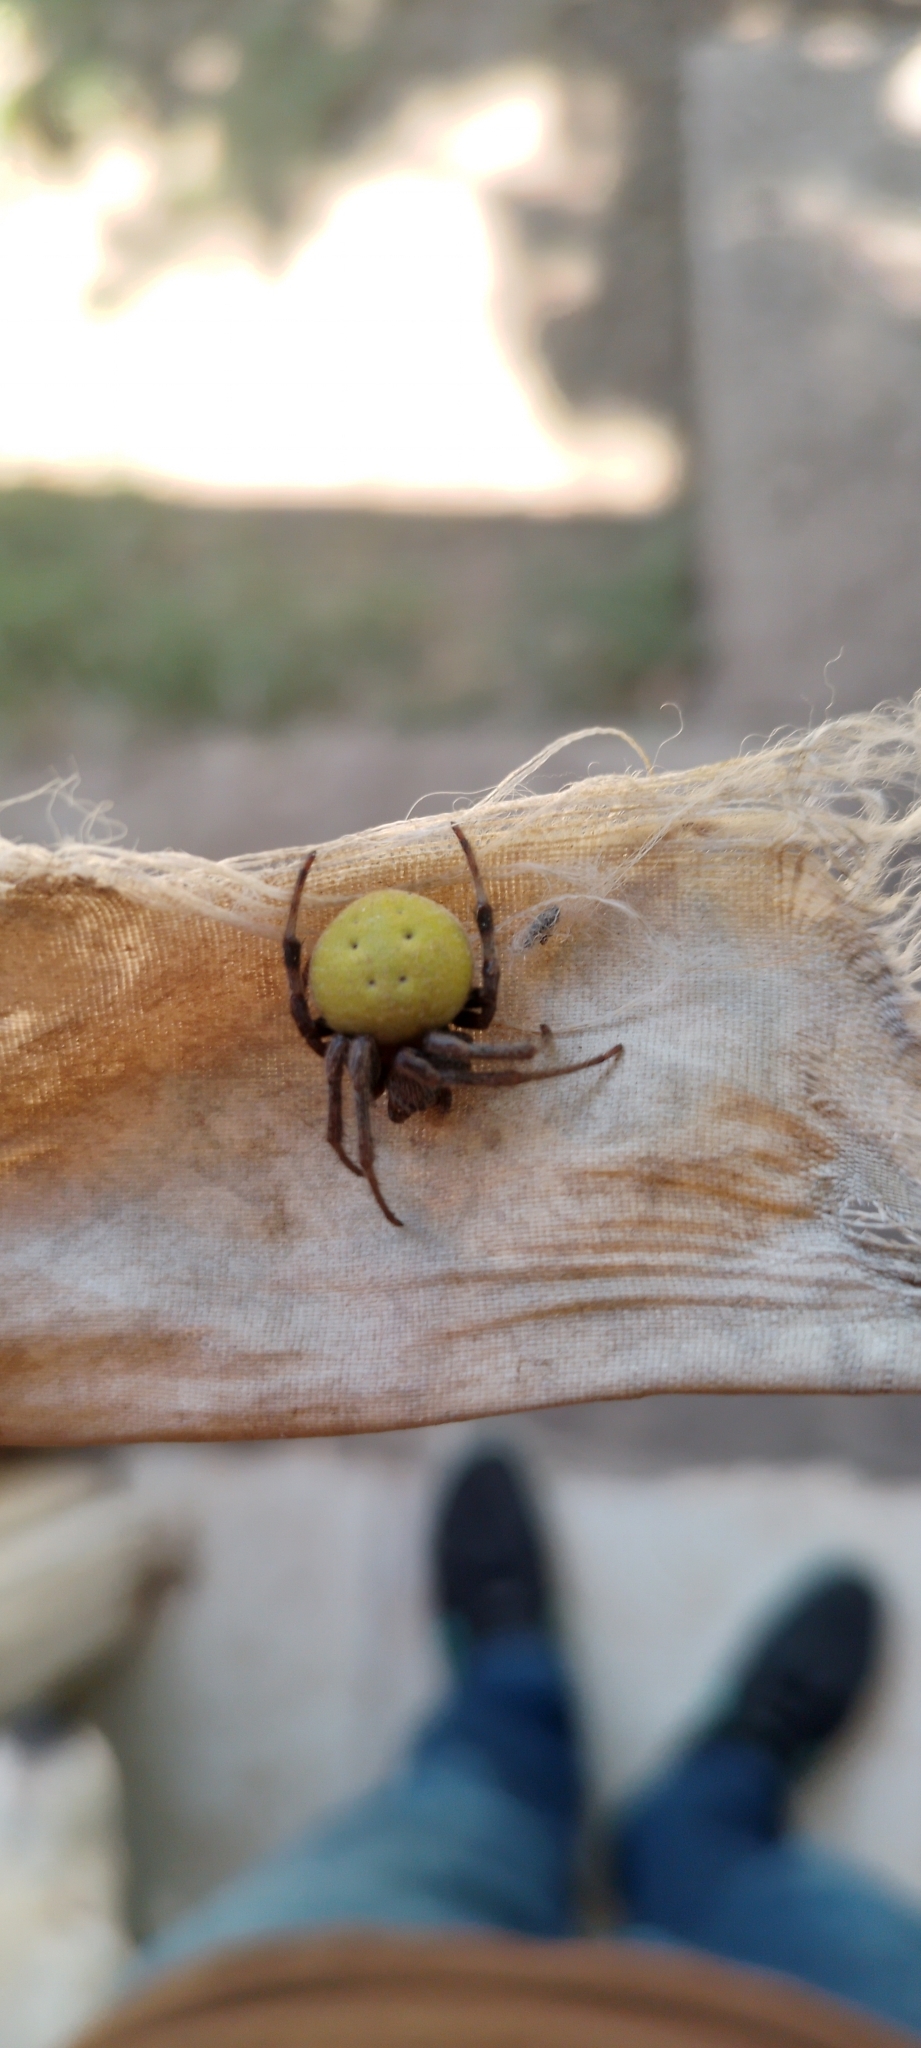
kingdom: Animalia
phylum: Arthropoda
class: Arachnida
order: Araneae
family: Araneidae
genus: Araneus
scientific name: Araneus lathyrinus
